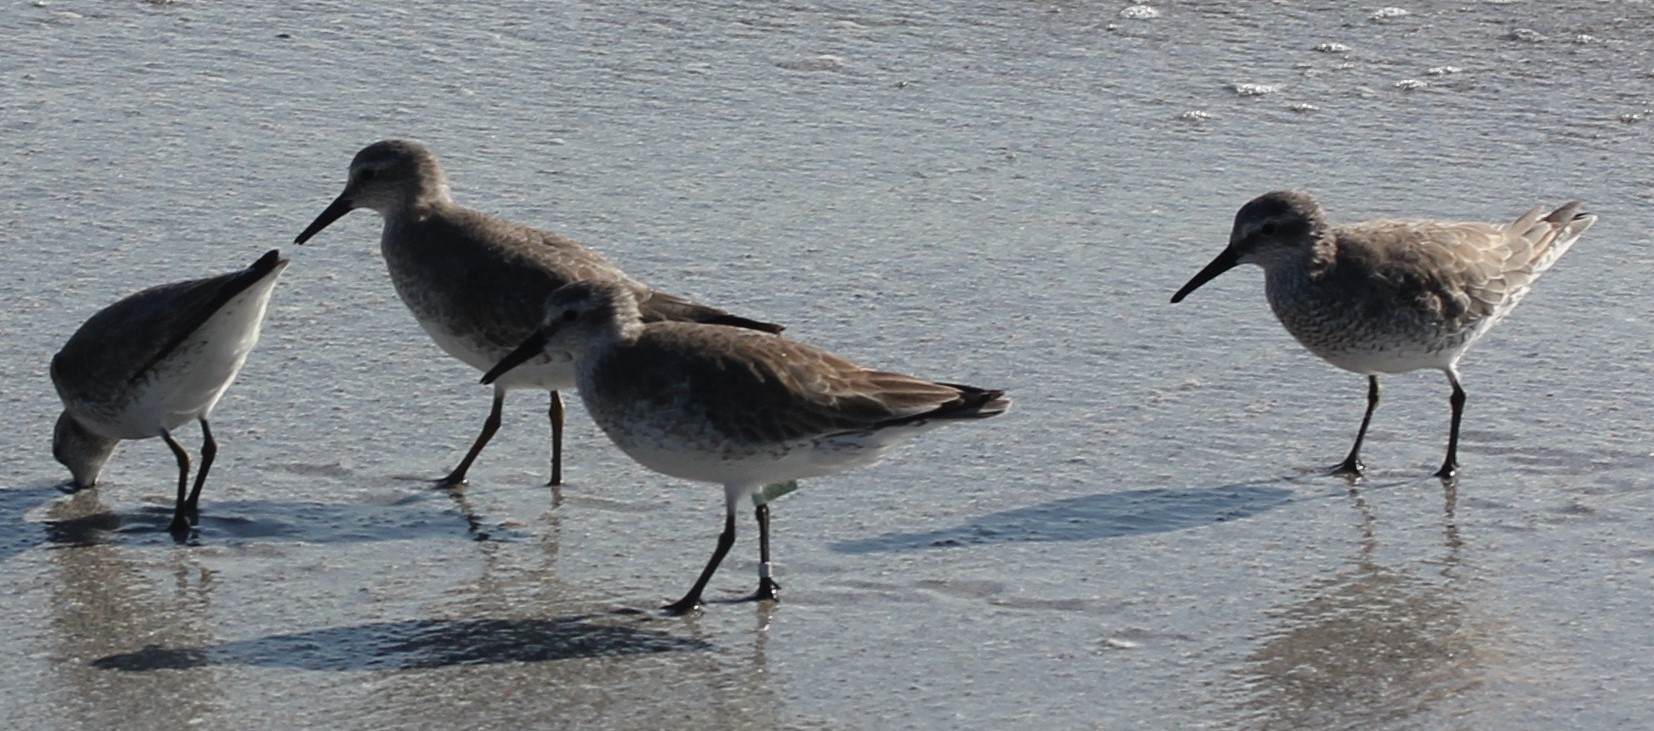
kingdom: Animalia
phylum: Chordata
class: Aves
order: Charadriiformes
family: Scolopacidae
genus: Calidris
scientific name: Calidris canutus
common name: Red knot
